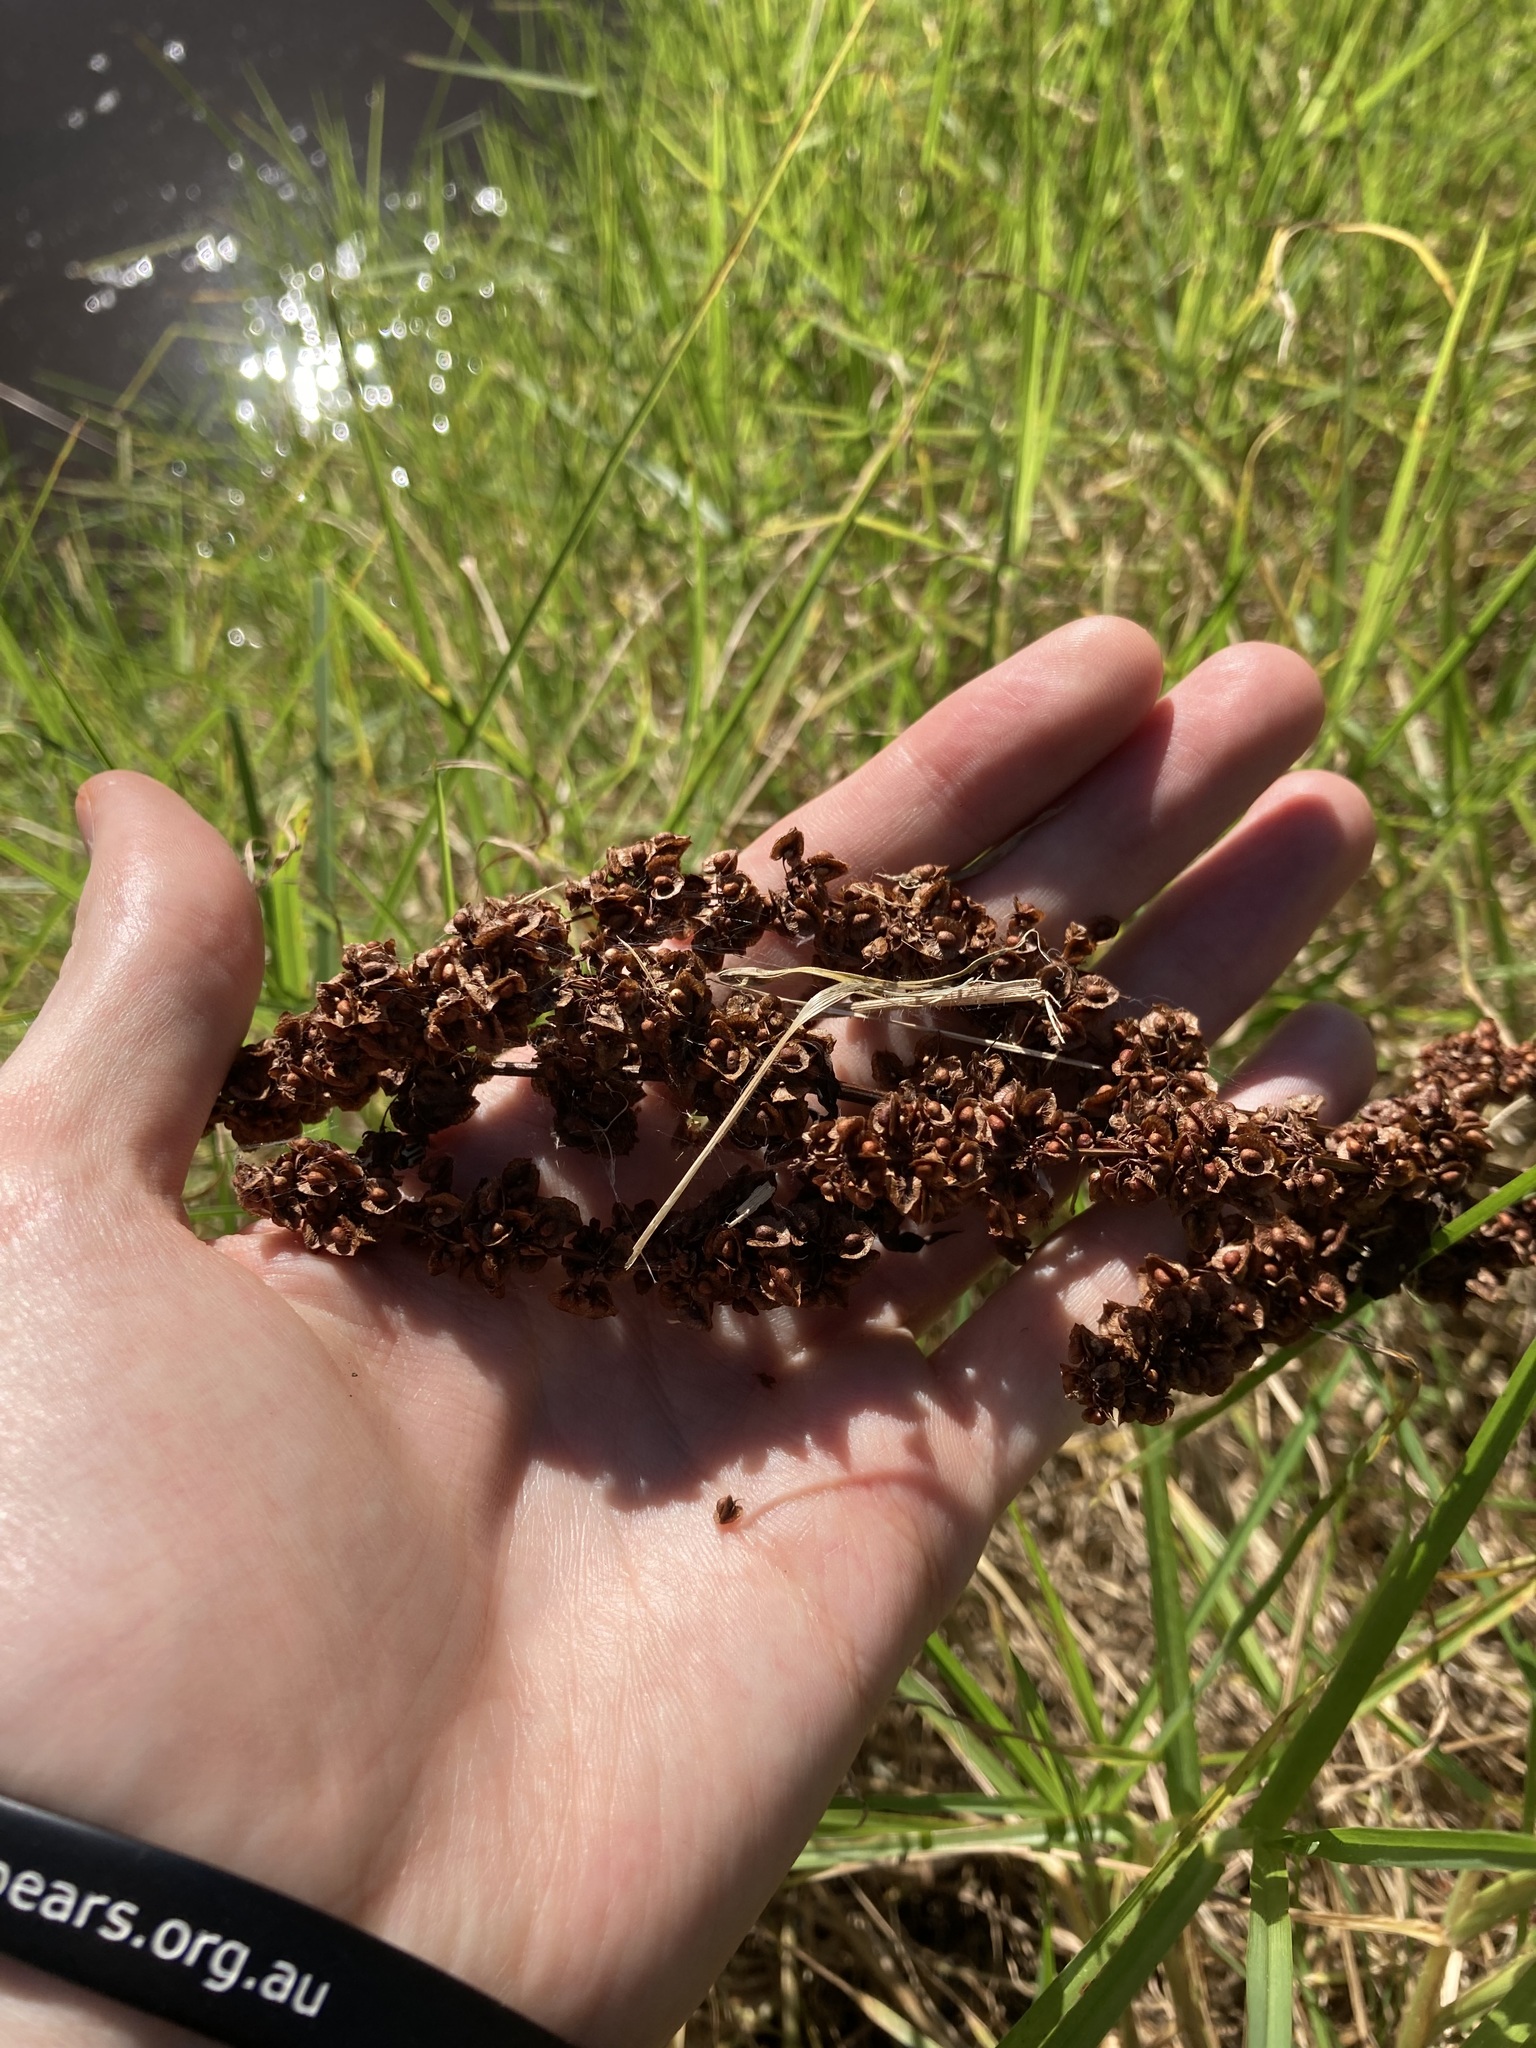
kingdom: Plantae
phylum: Tracheophyta
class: Magnoliopsida
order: Caryophyllales
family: Polygonaceae
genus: Rumex
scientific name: Rumex crispus
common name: Curled dock
